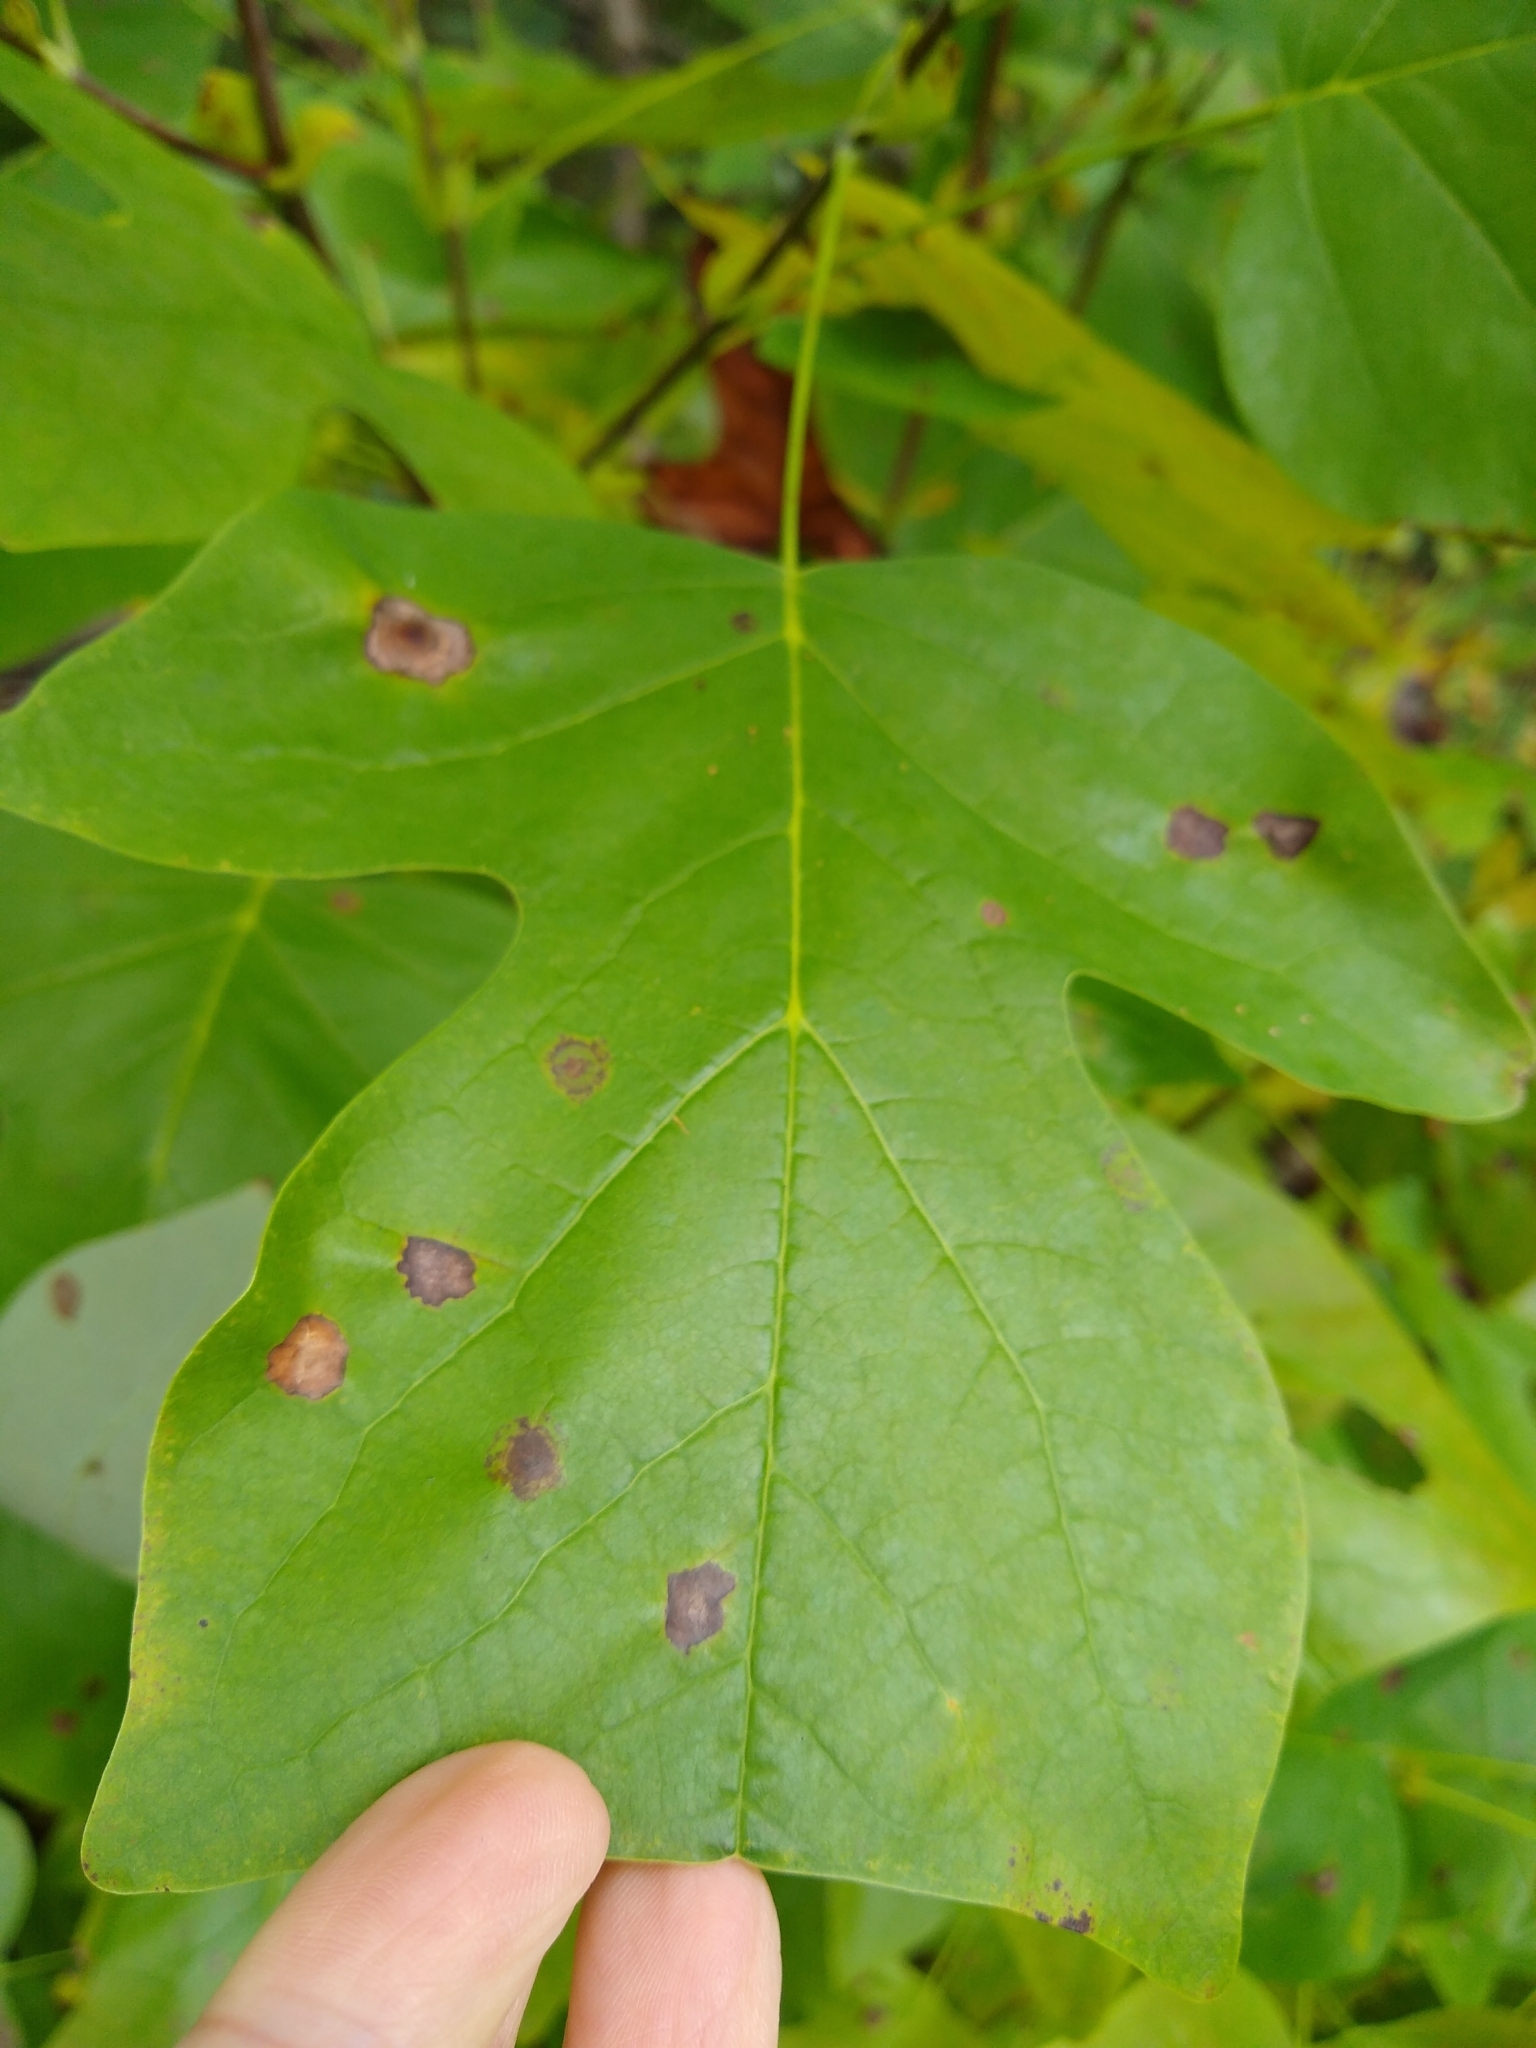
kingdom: Plantae
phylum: Tracheophyta
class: Magnoliopsida
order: Magnoliales
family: Magnoliaceae
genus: Liriodendron
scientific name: Liriodendron tulipifera
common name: Tulip tree
